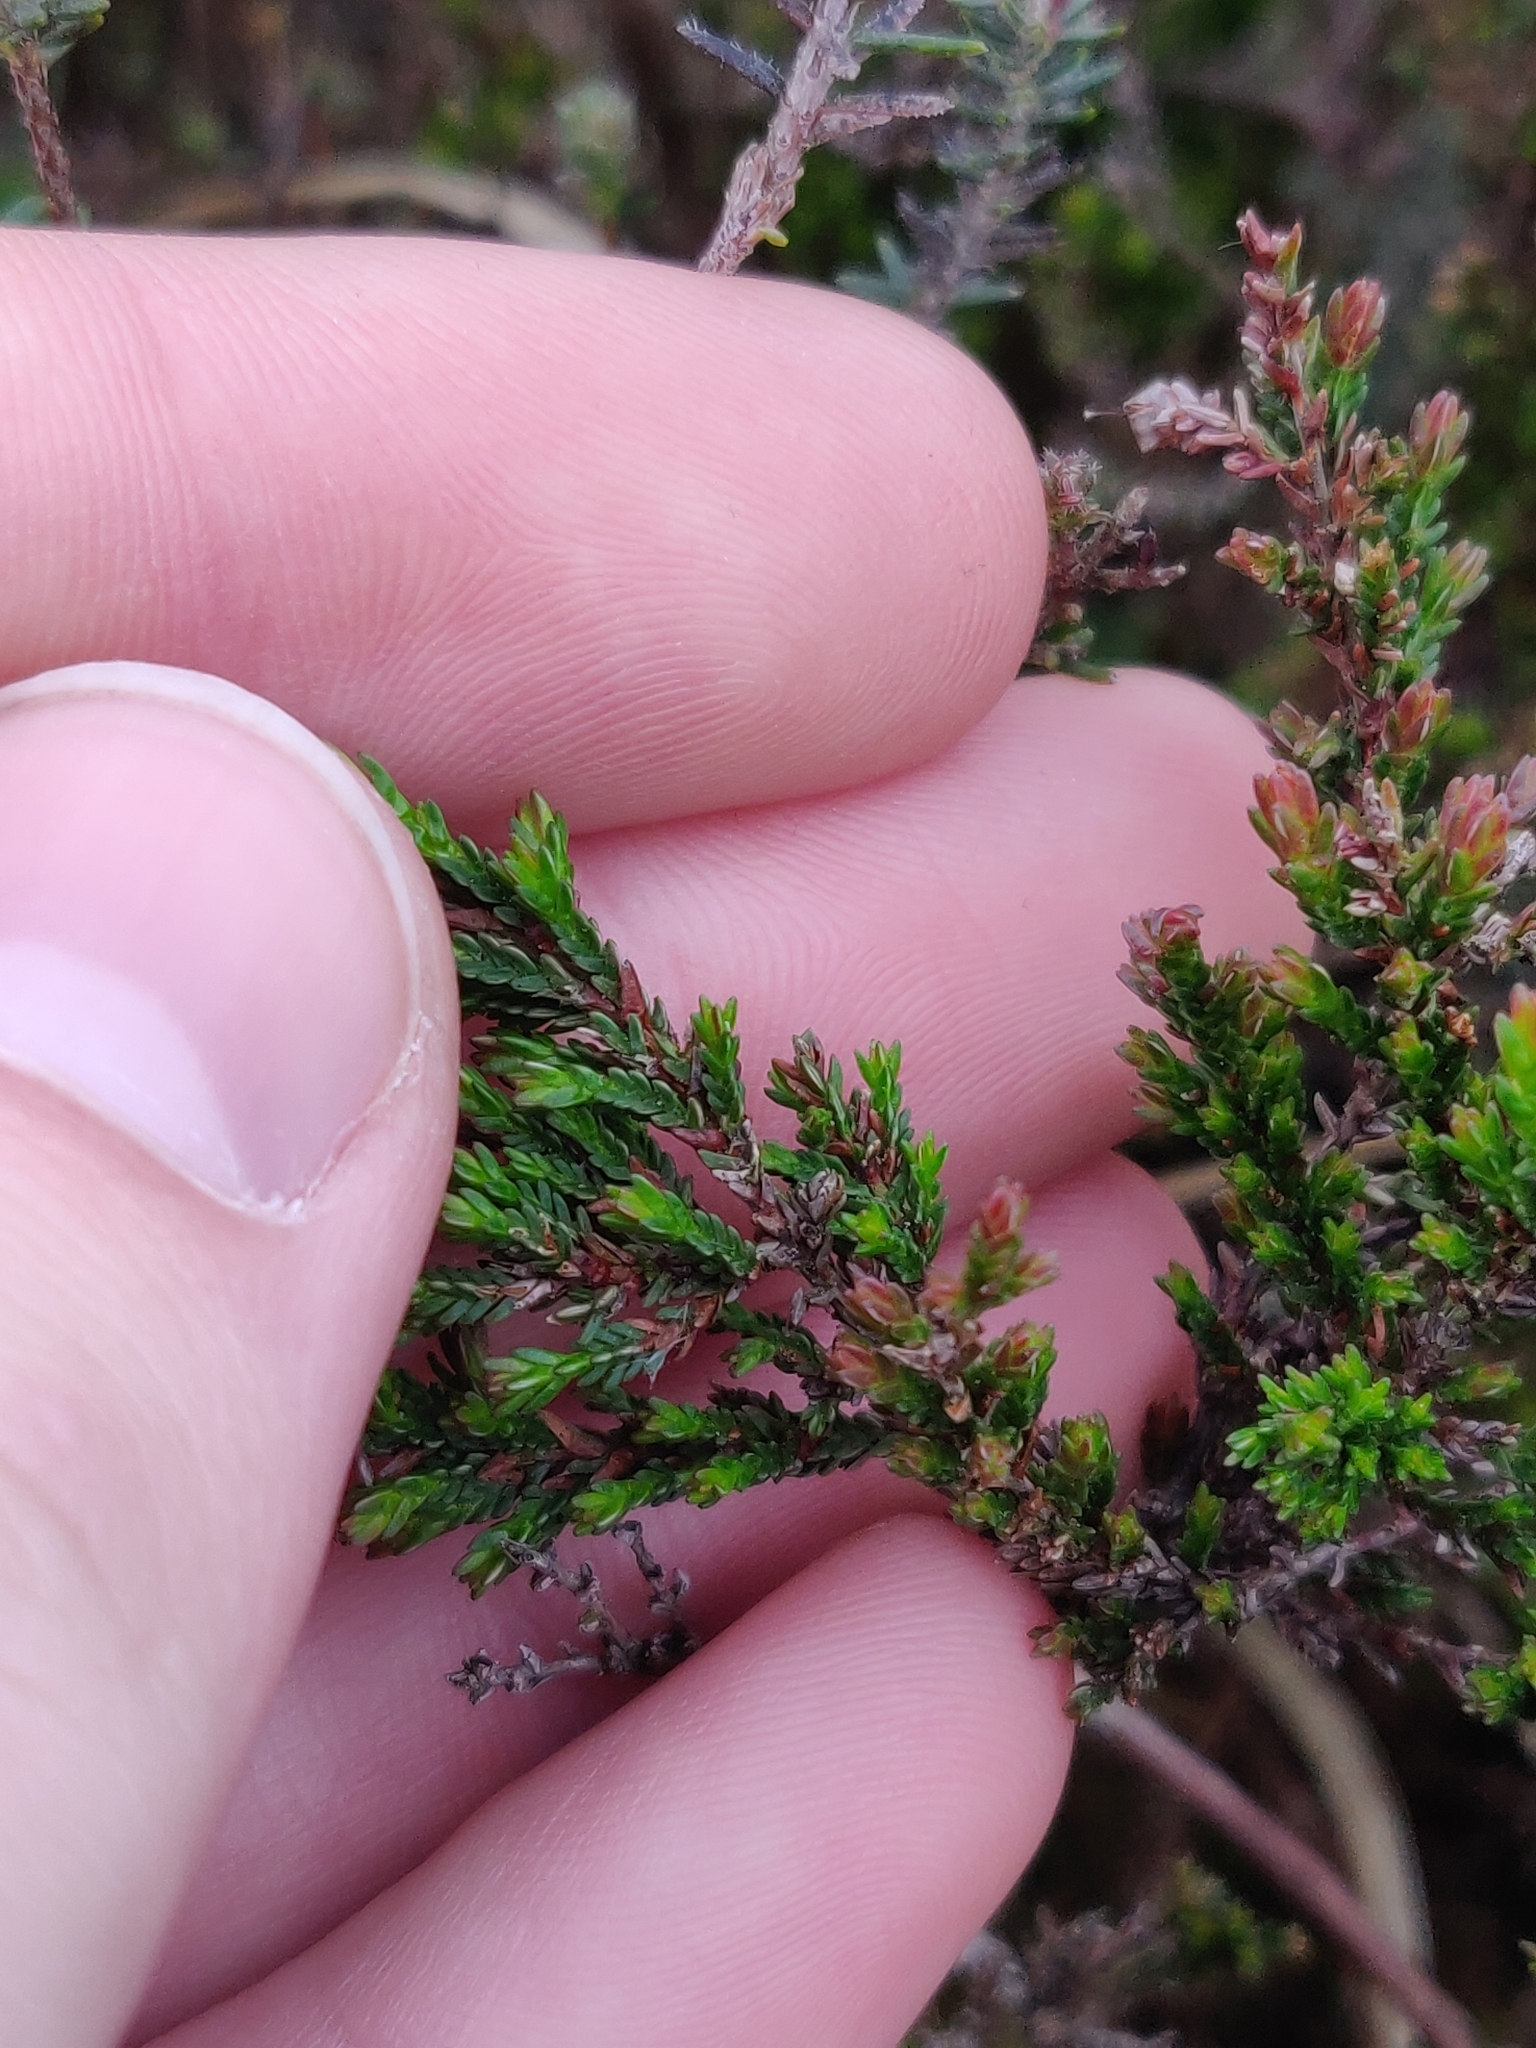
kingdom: Plantae
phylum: Tracheophyta
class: Magnoliopsida
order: Ericales
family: Ericaceae
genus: Calluna
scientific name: Calluna vulgaris
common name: Heather
